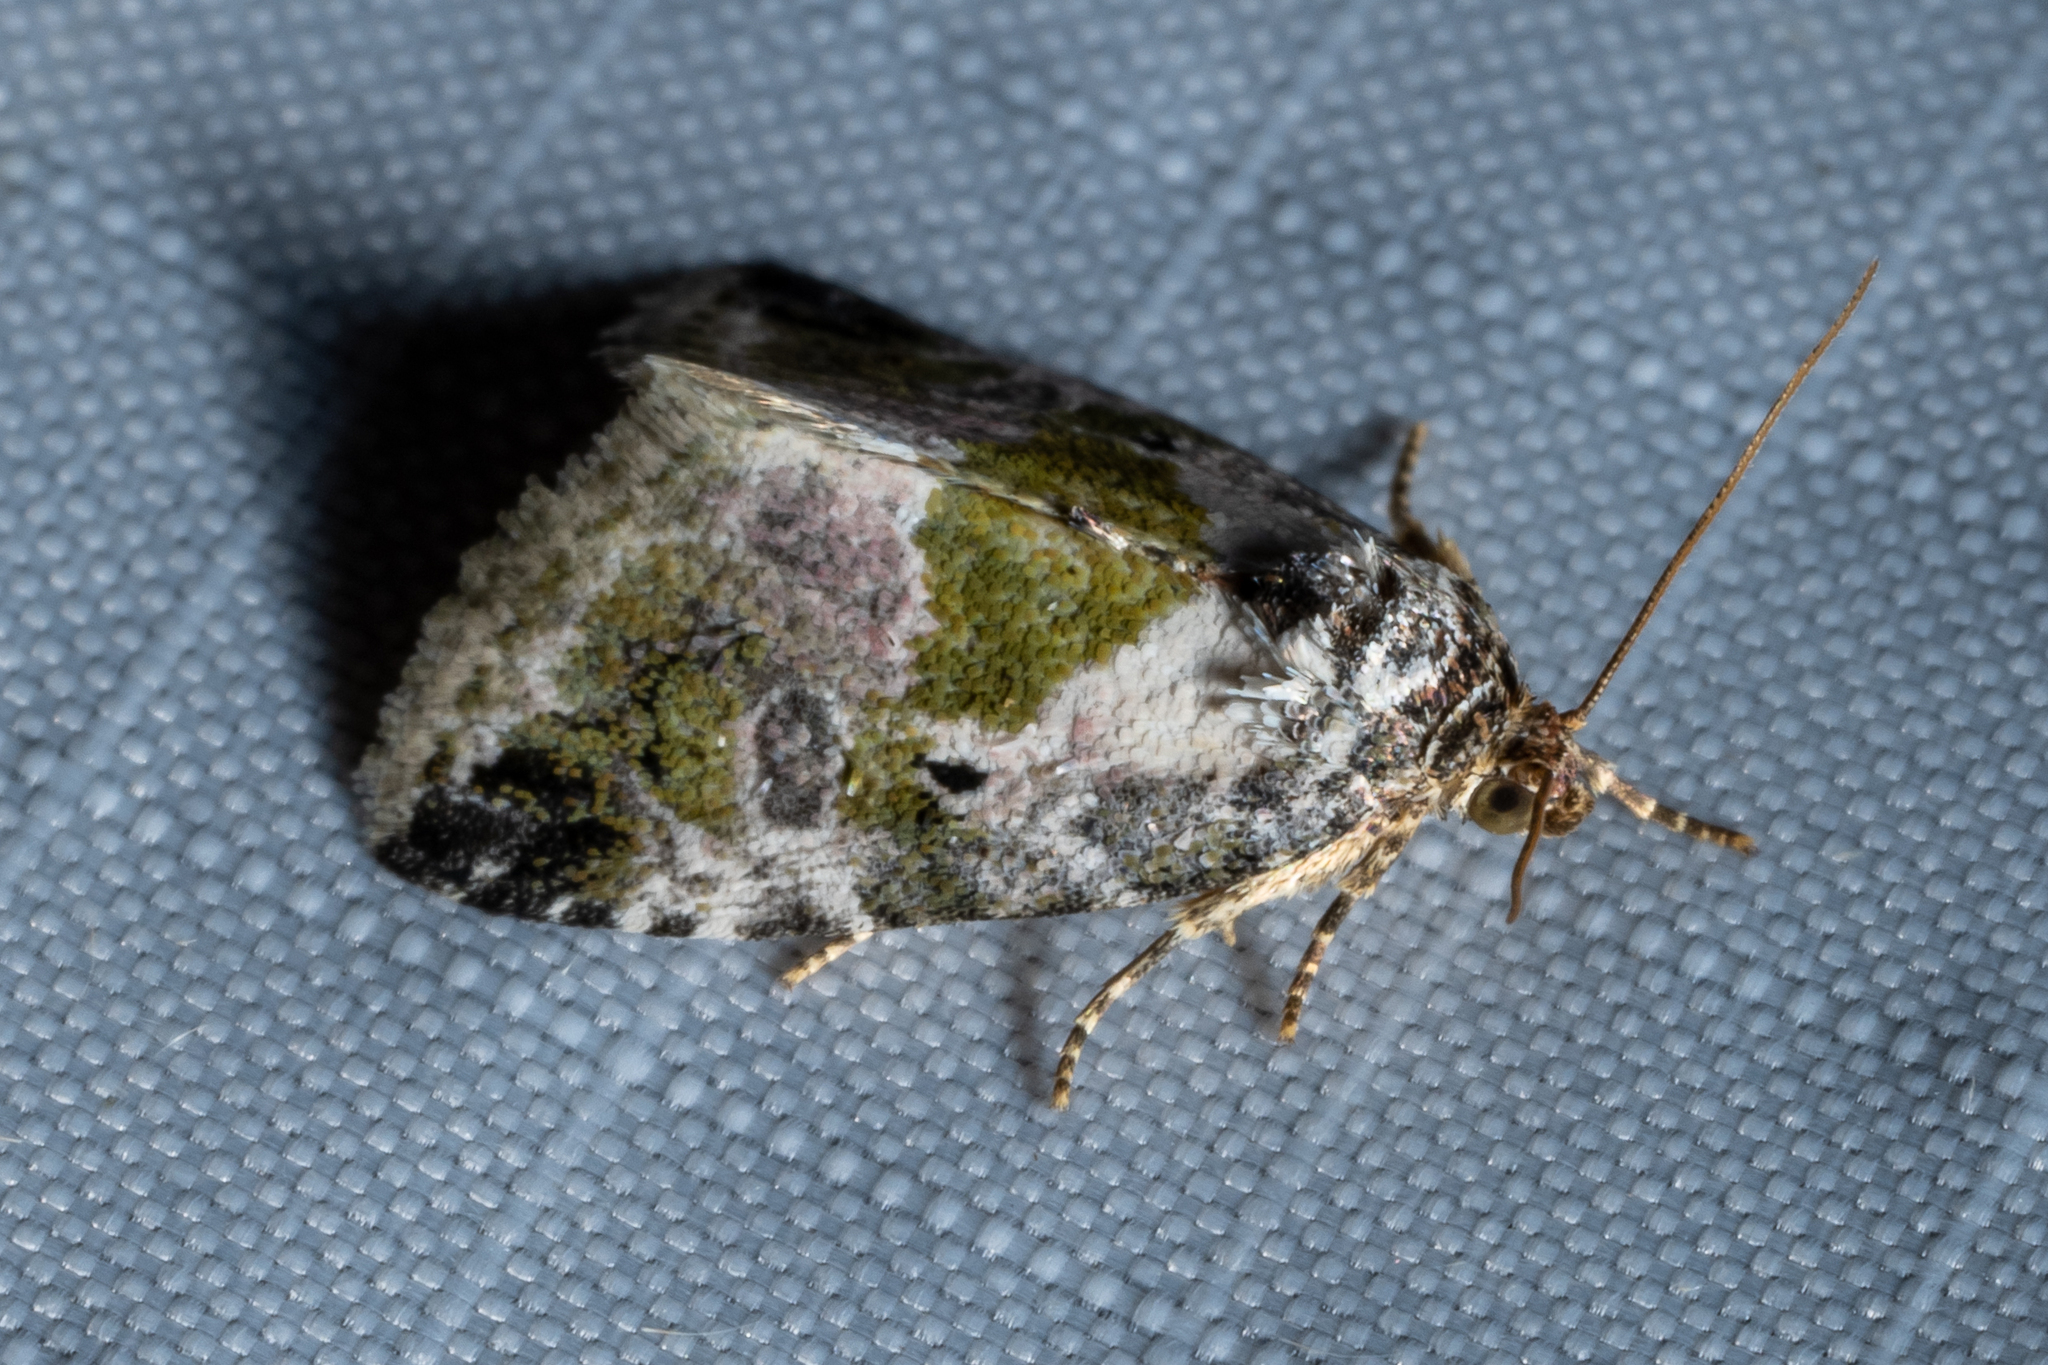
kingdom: Animalia
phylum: Arthropoda
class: Insecta
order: Lepidoptera
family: Noctuidae
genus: Maliattha
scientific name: Maliattha synochitis
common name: Black-dotted glyph
